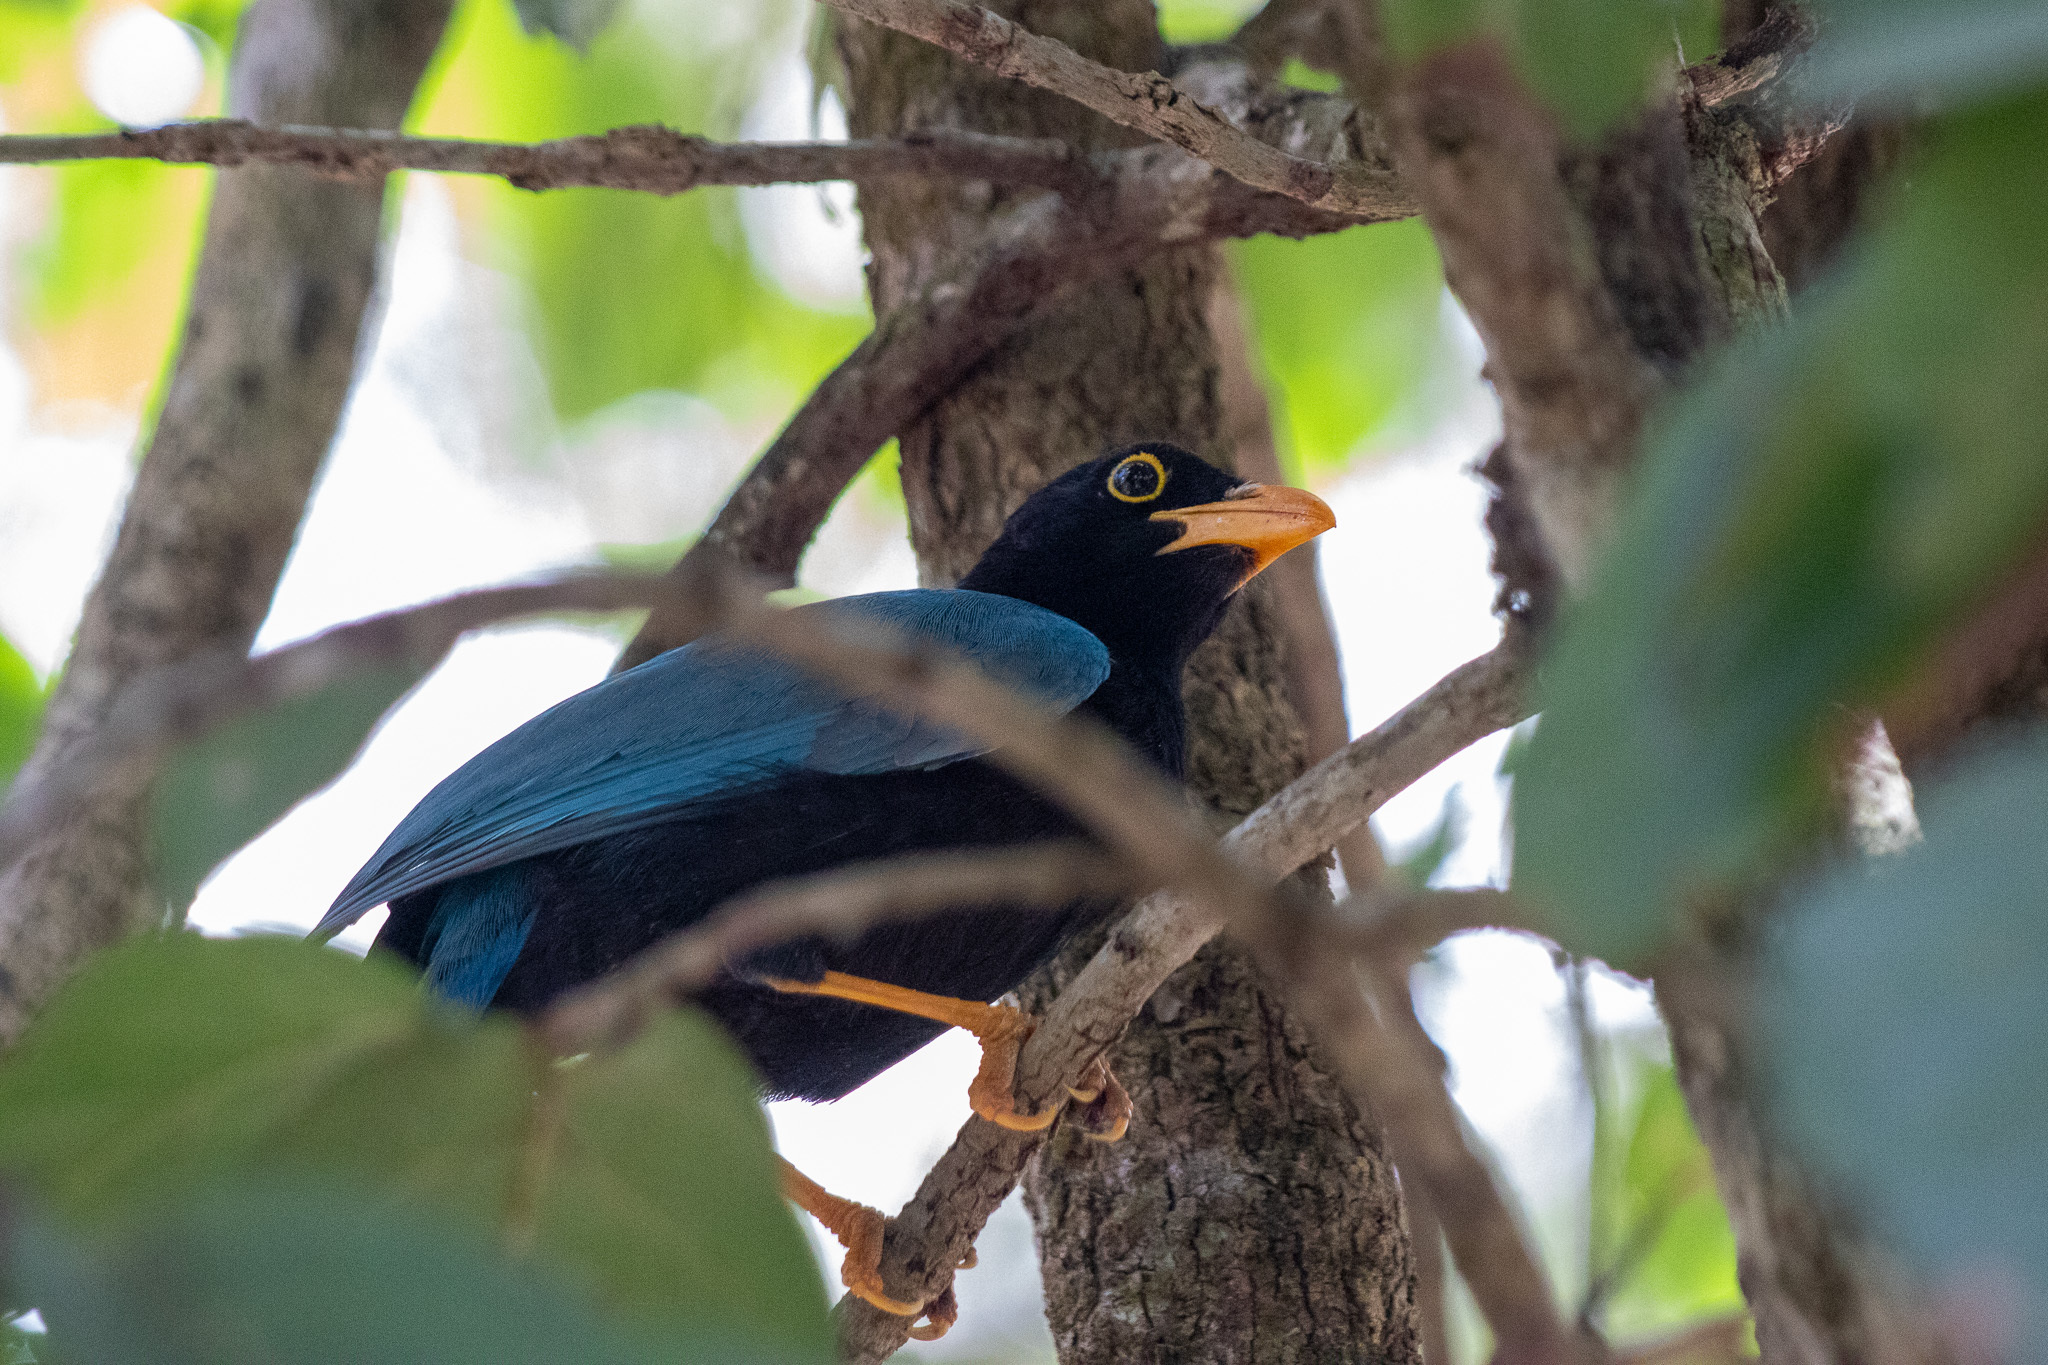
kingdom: Animalia
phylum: Chordata
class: Aves
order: Passeriformes
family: Corvidae
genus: Cyanocorax
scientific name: Cyanocorax yucatanicus
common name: Yucatan jay
